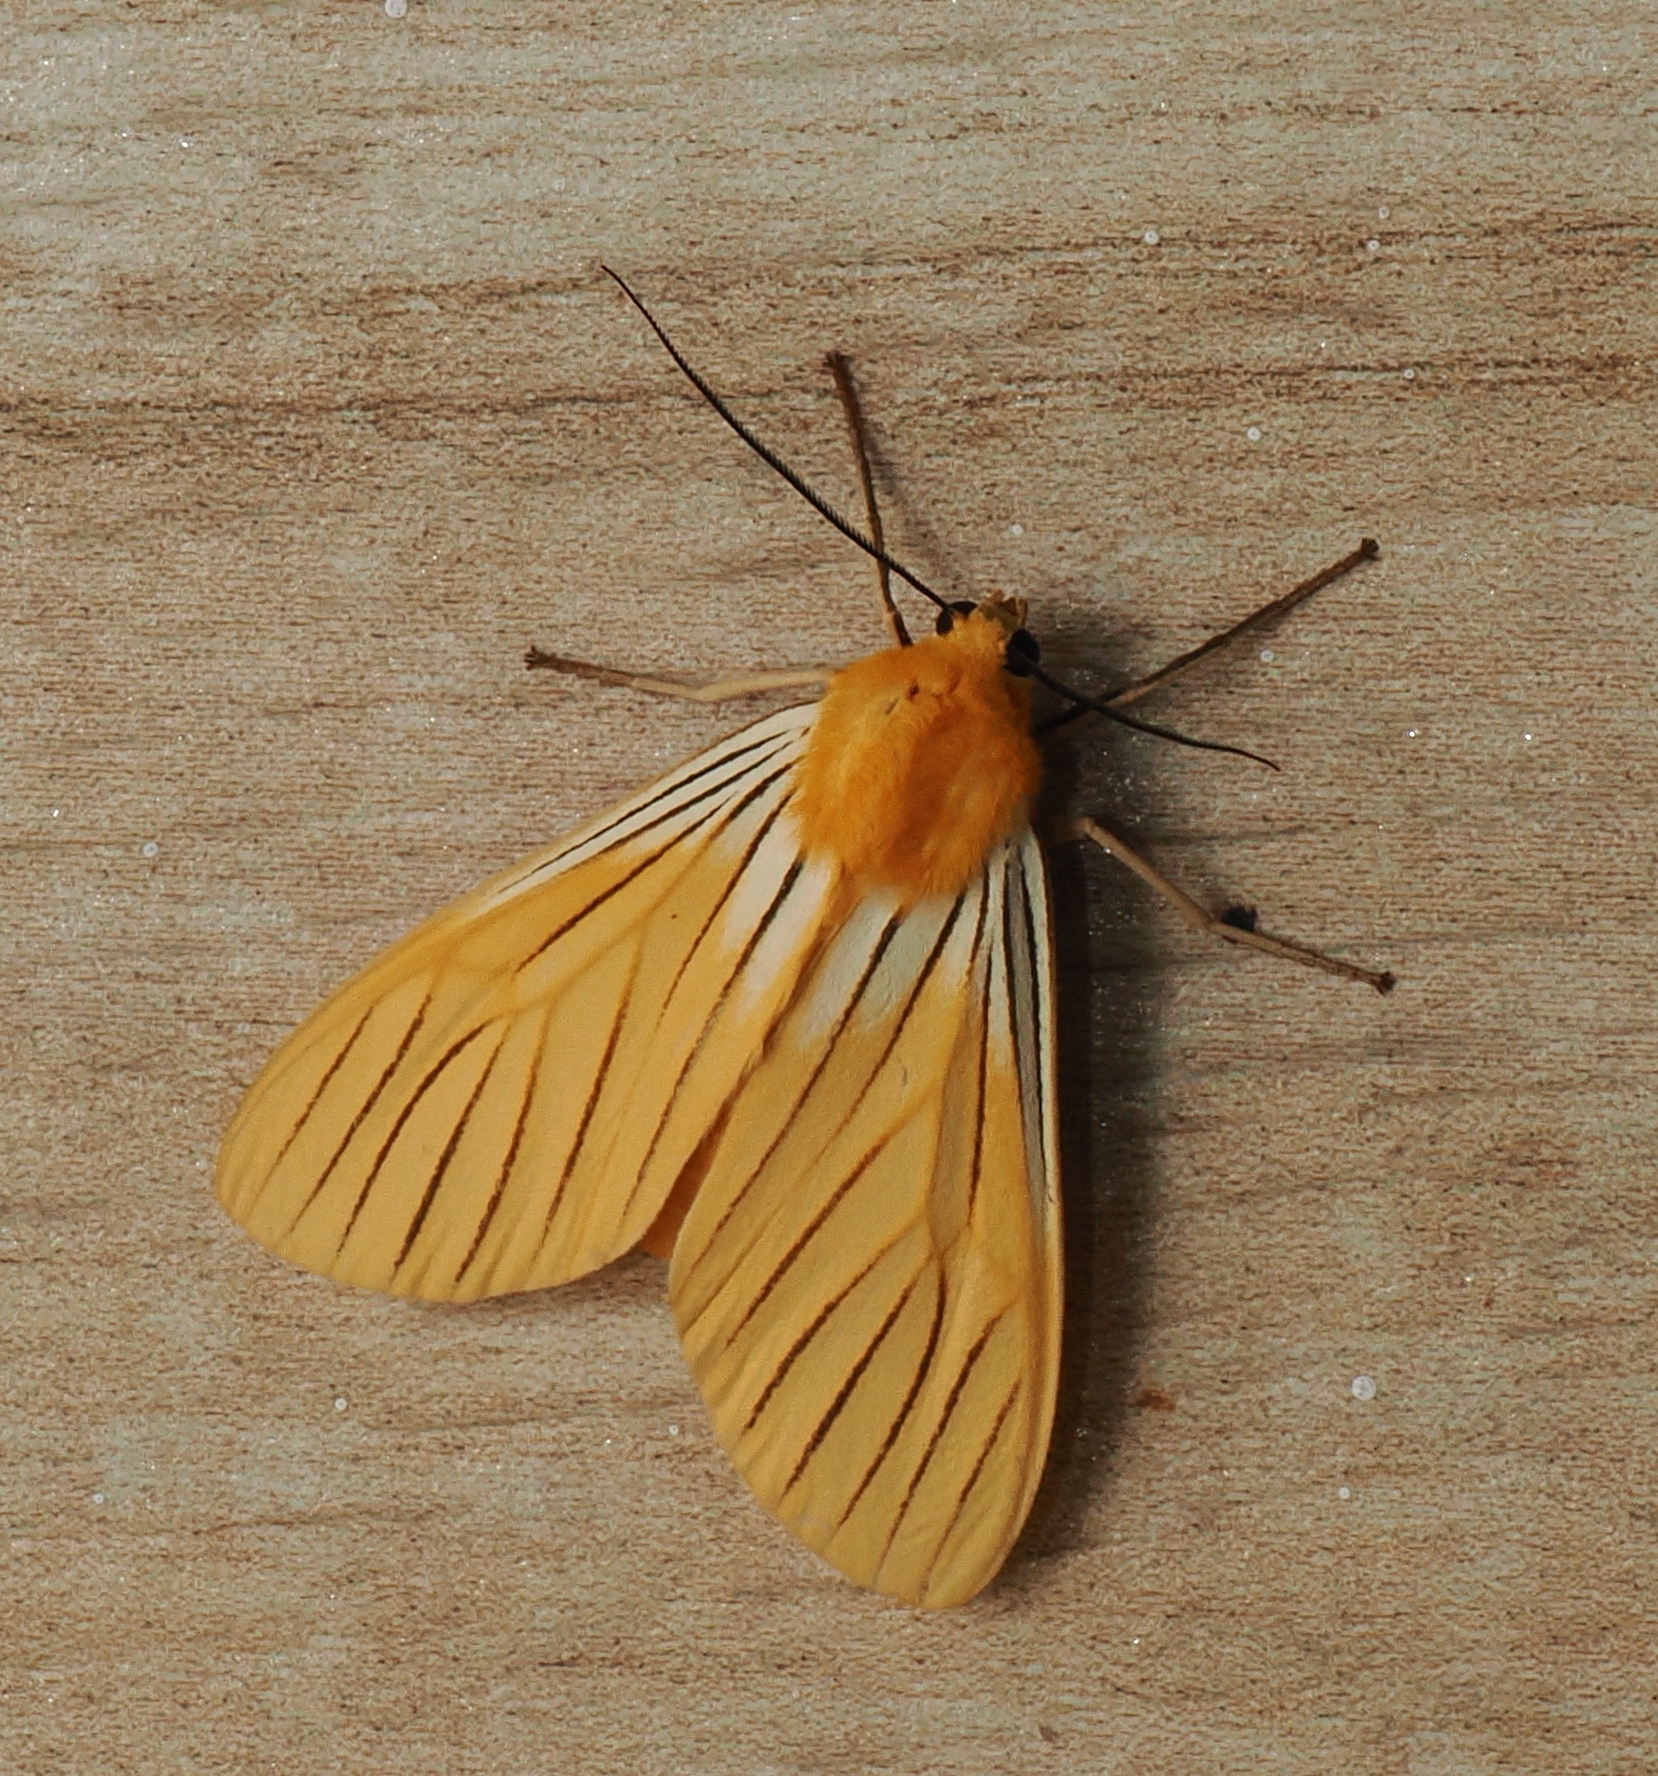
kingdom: Animalia
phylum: Arthropoda
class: Insecta
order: Lepidoptera
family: Erebidae
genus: Pseudischnocampa
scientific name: Pseudischnocampa
